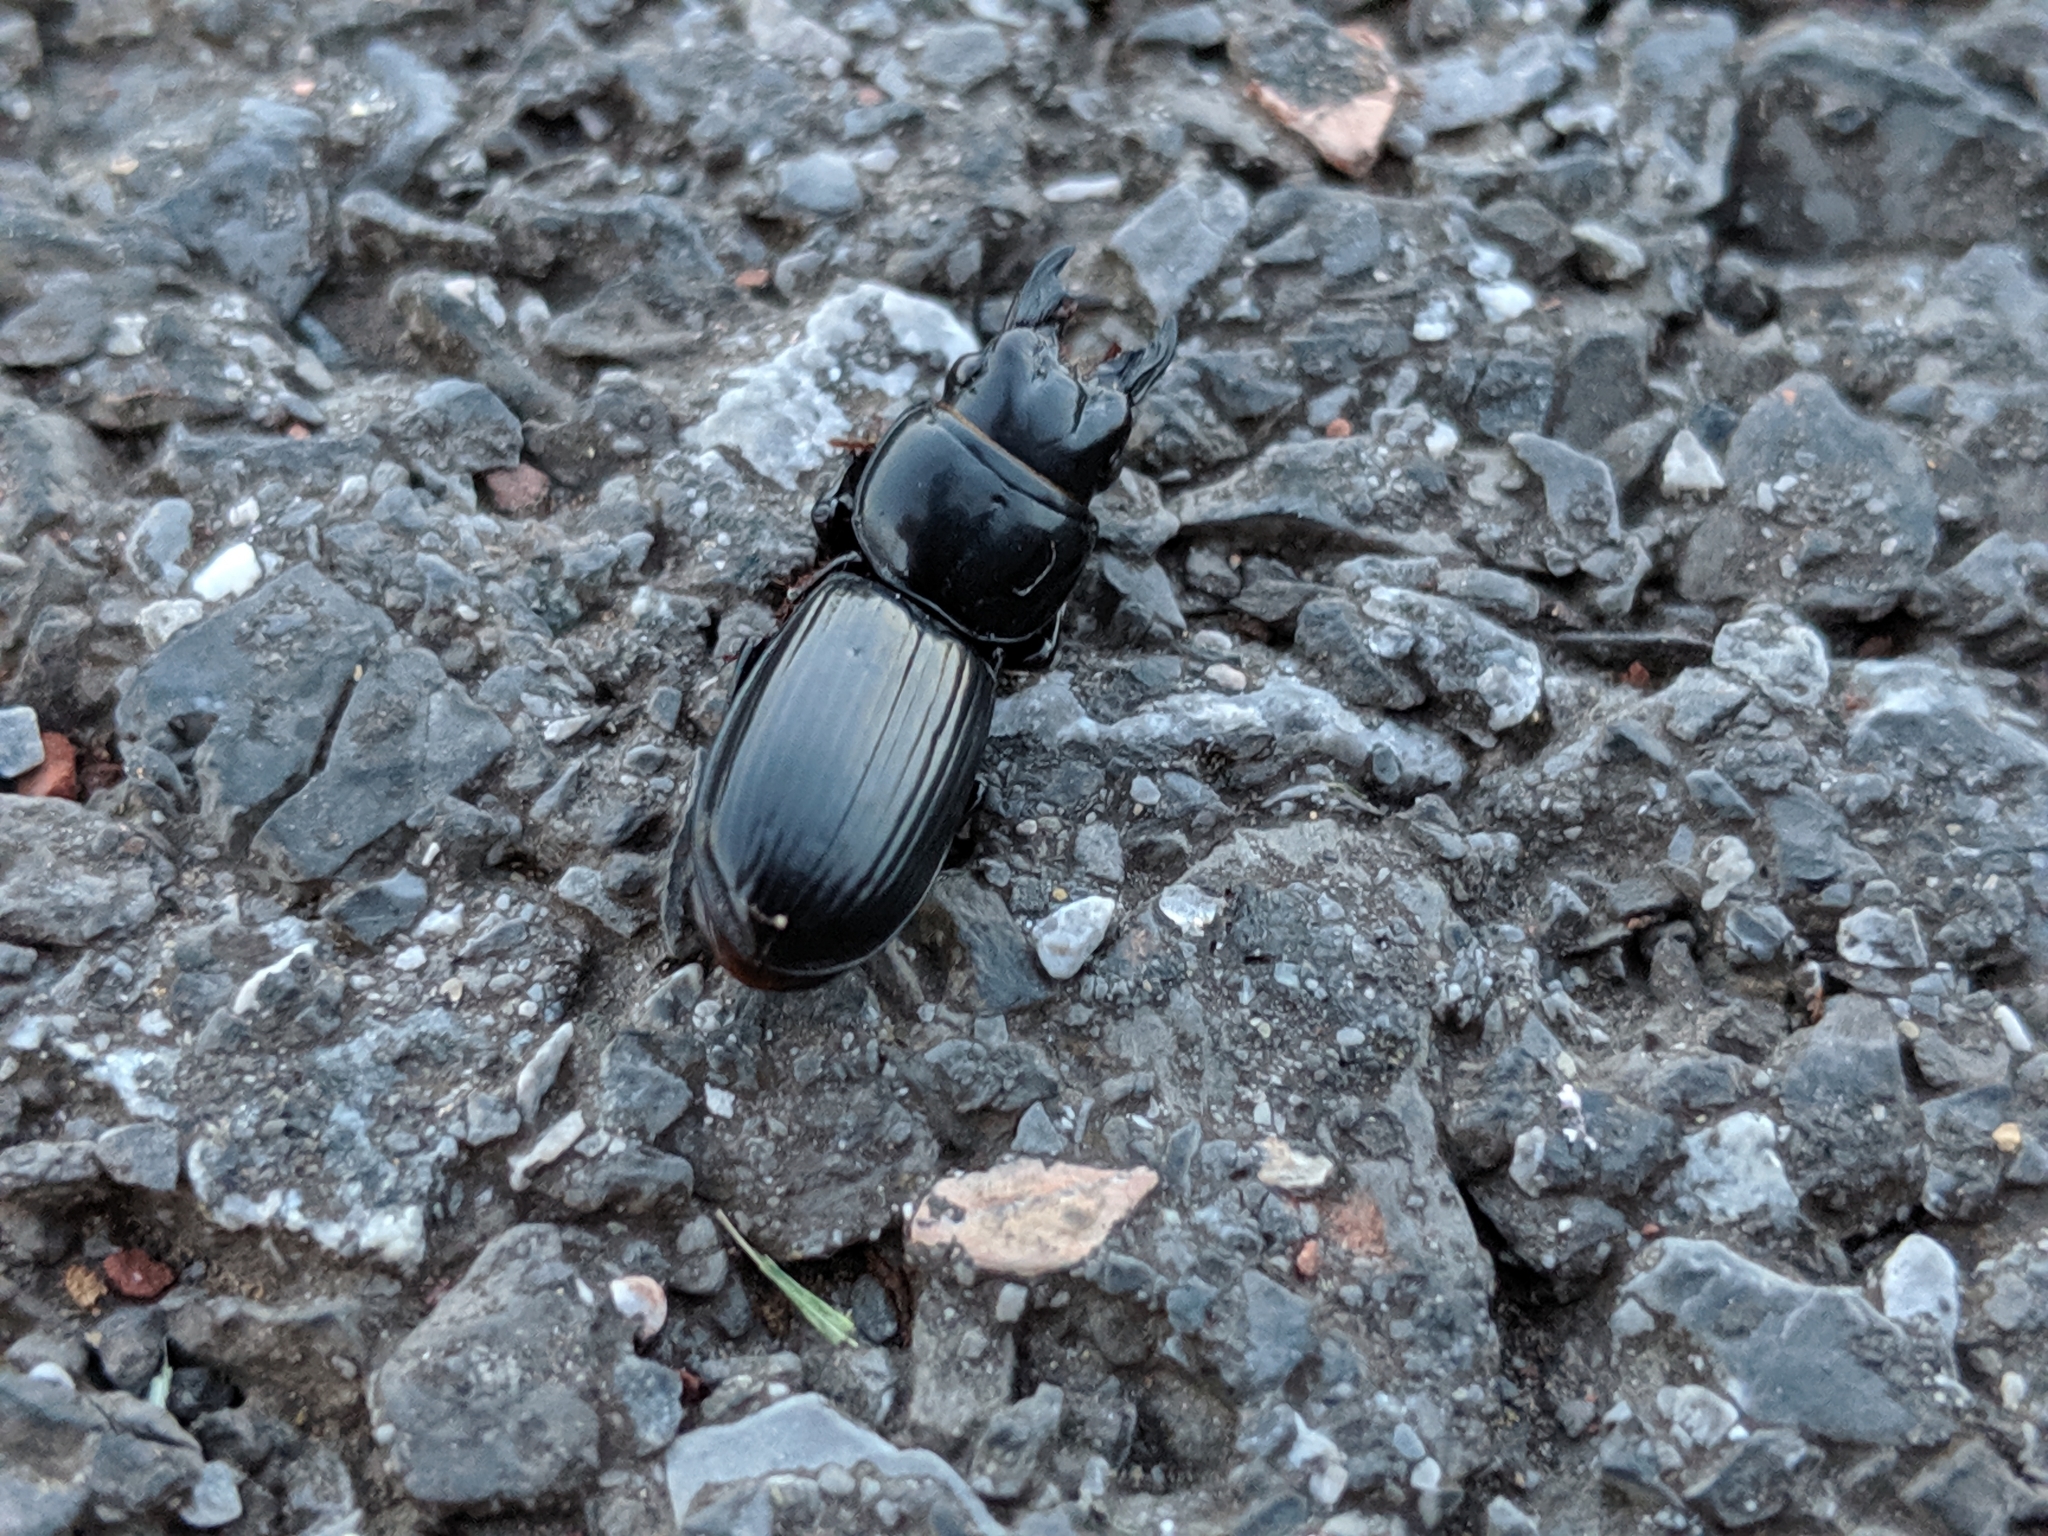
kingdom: Animalia
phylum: Arthropoda
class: Insecta
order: Coleoptera
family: Carabidae
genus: Scarites
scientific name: Scarites subterraneus
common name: Big-headed ground beetle
